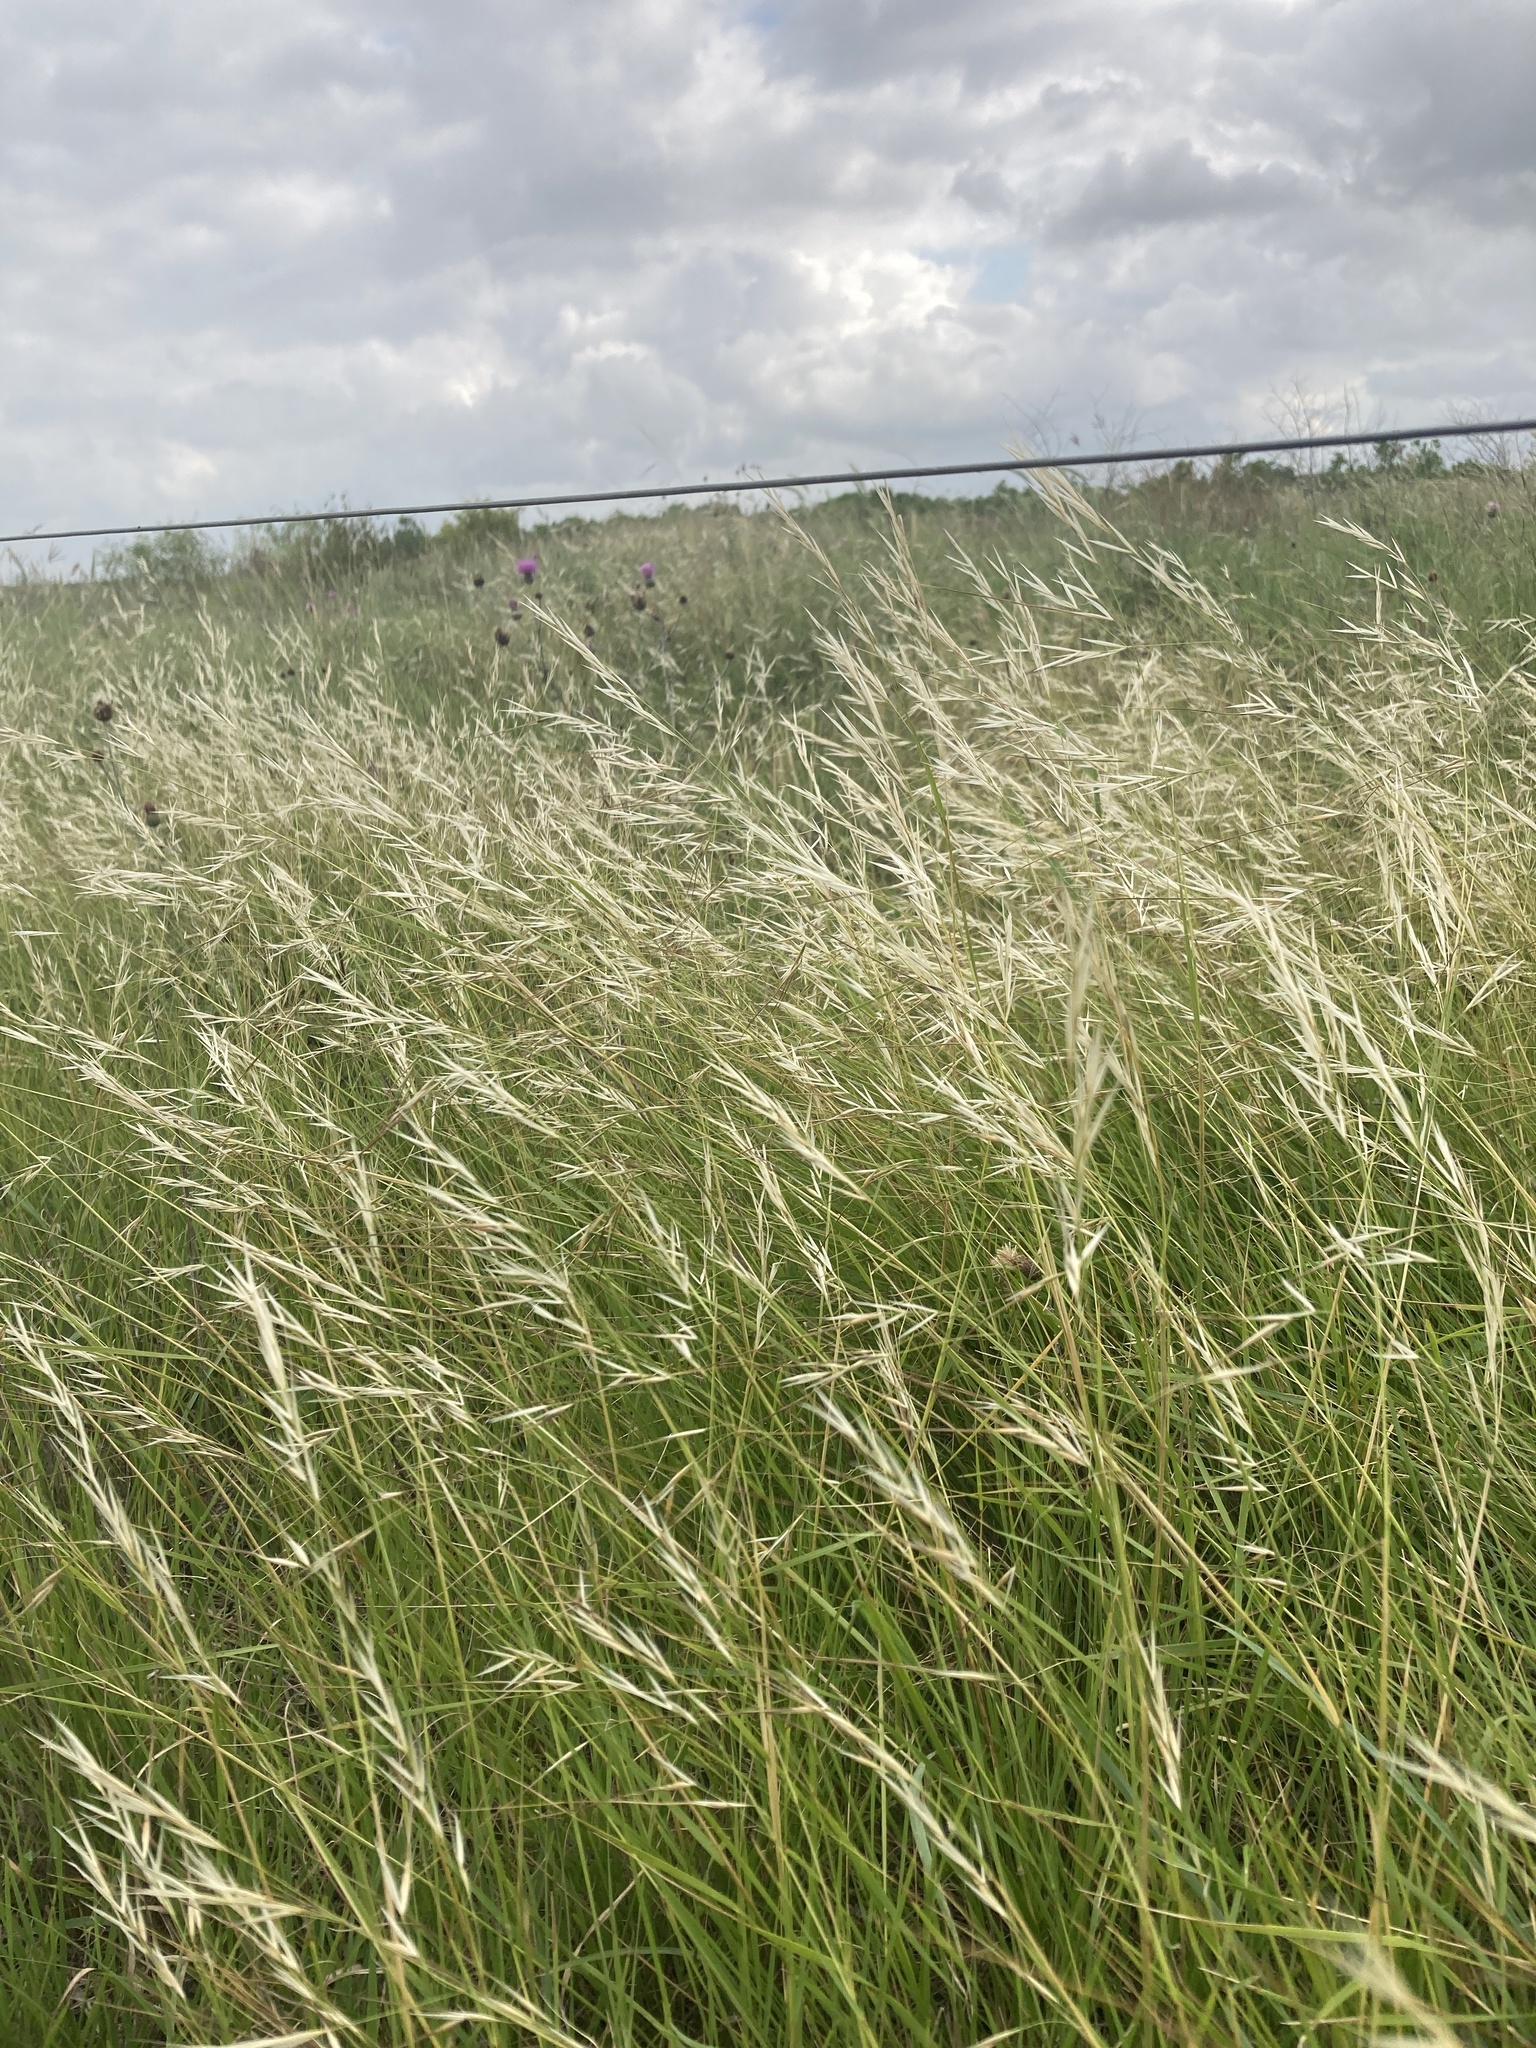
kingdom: Plantae
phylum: Tracheophyta
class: Liliopsida
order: Poales
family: Poaceae
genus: Nassella
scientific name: Nassella leucotricha
